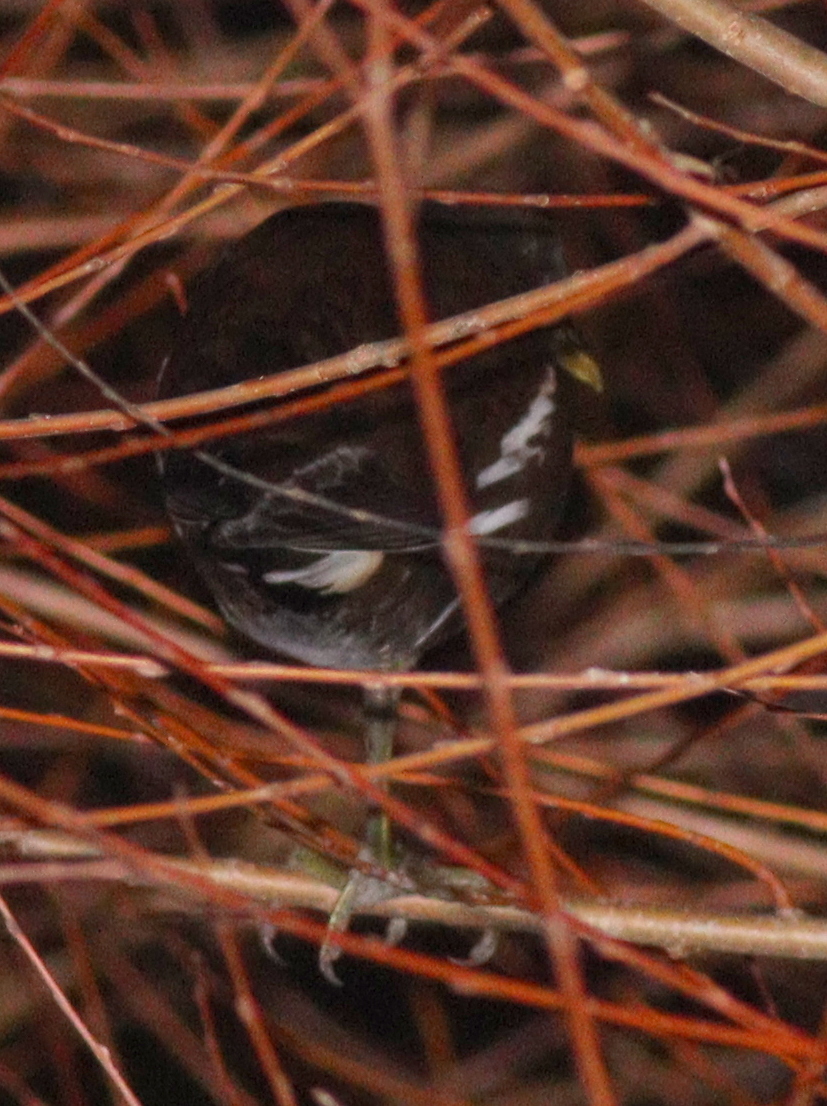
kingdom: Animalia
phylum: Chordata
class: Aves
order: Gruiformes
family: Rallidae
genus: Gallinula
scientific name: Gallinula chloropus
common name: Common moorhen
